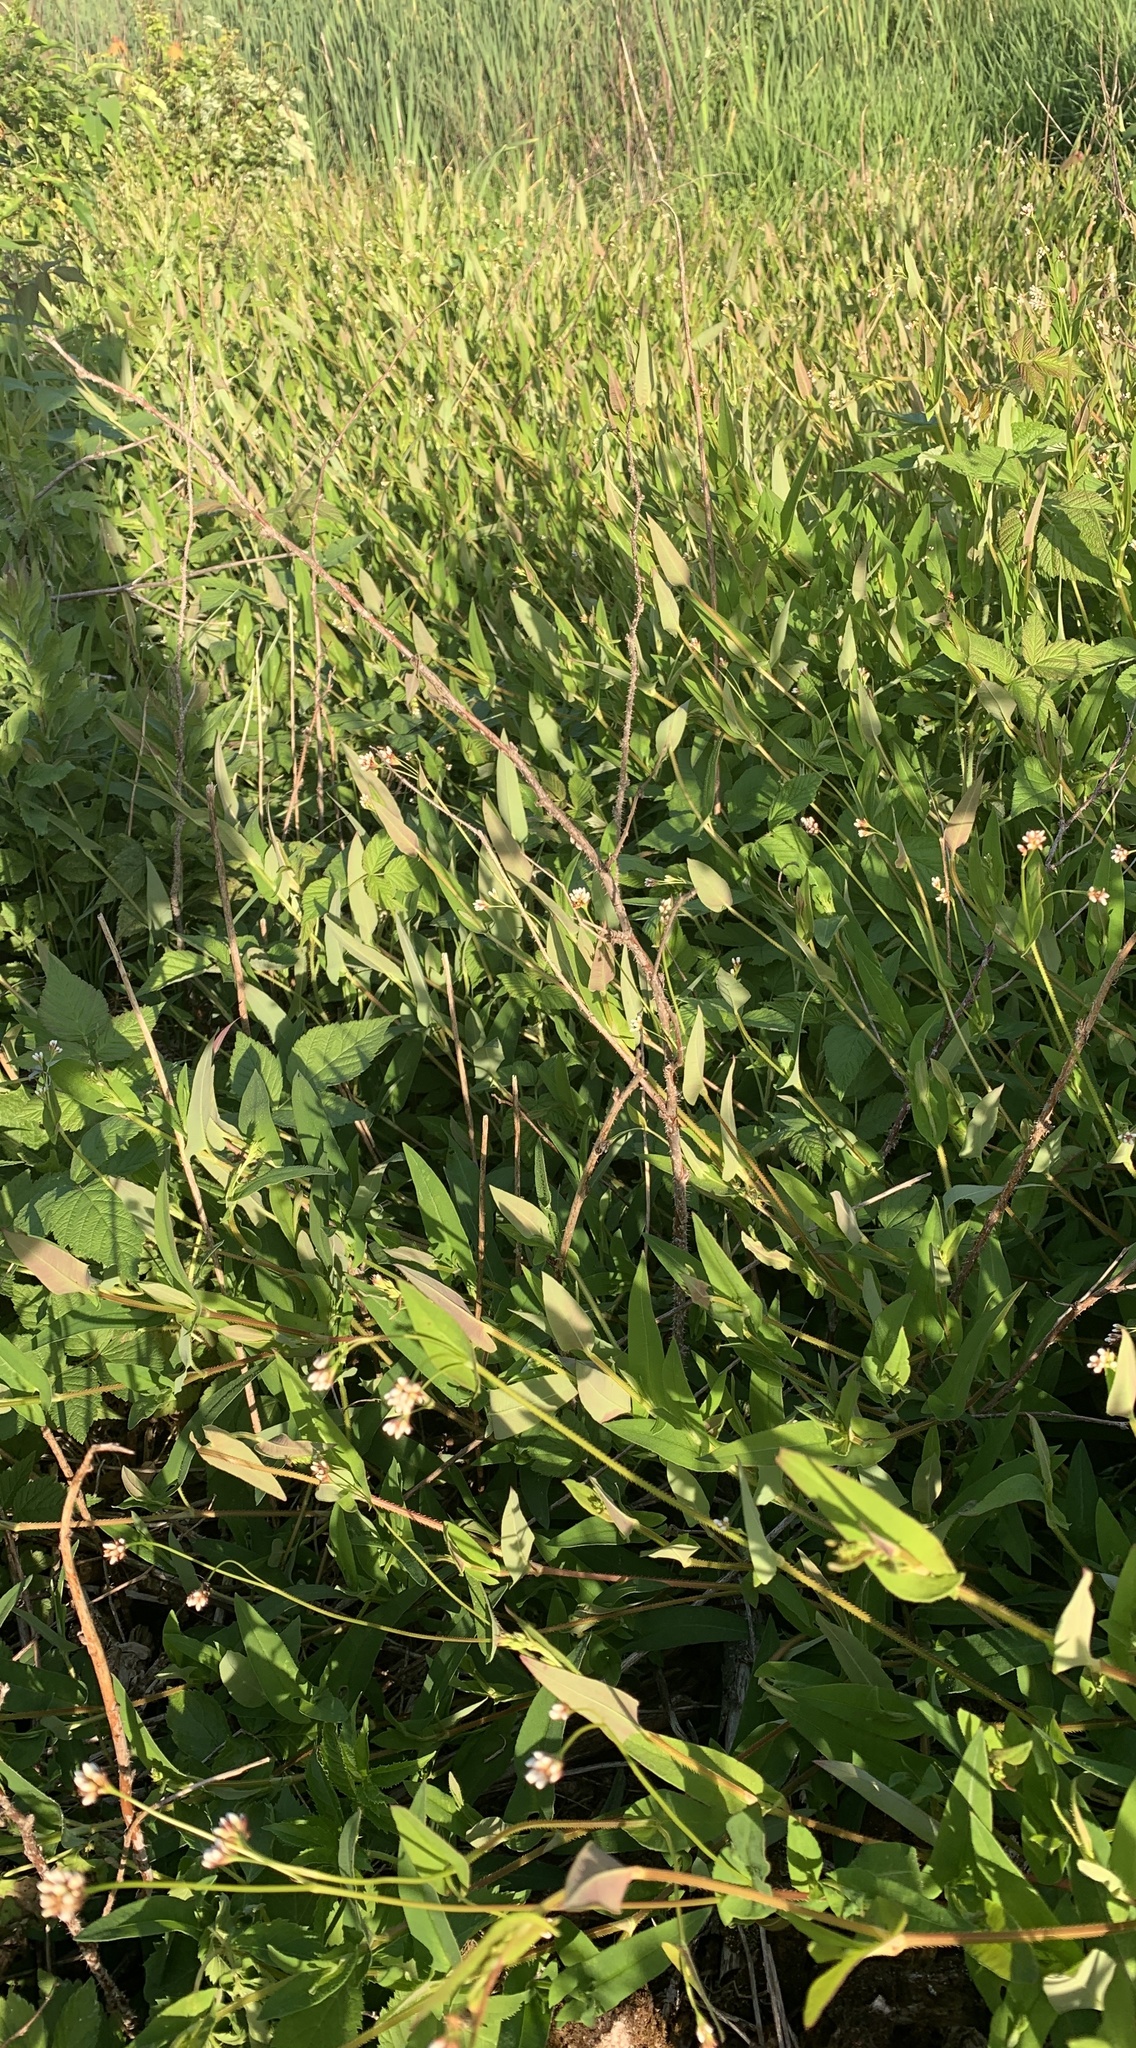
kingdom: Plantae
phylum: Tracheophyta
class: Magnoliopsida
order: Caryophyllales
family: Polygonaceae
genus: Persicaria
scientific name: Persicaria sagittata
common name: American tearthumb
